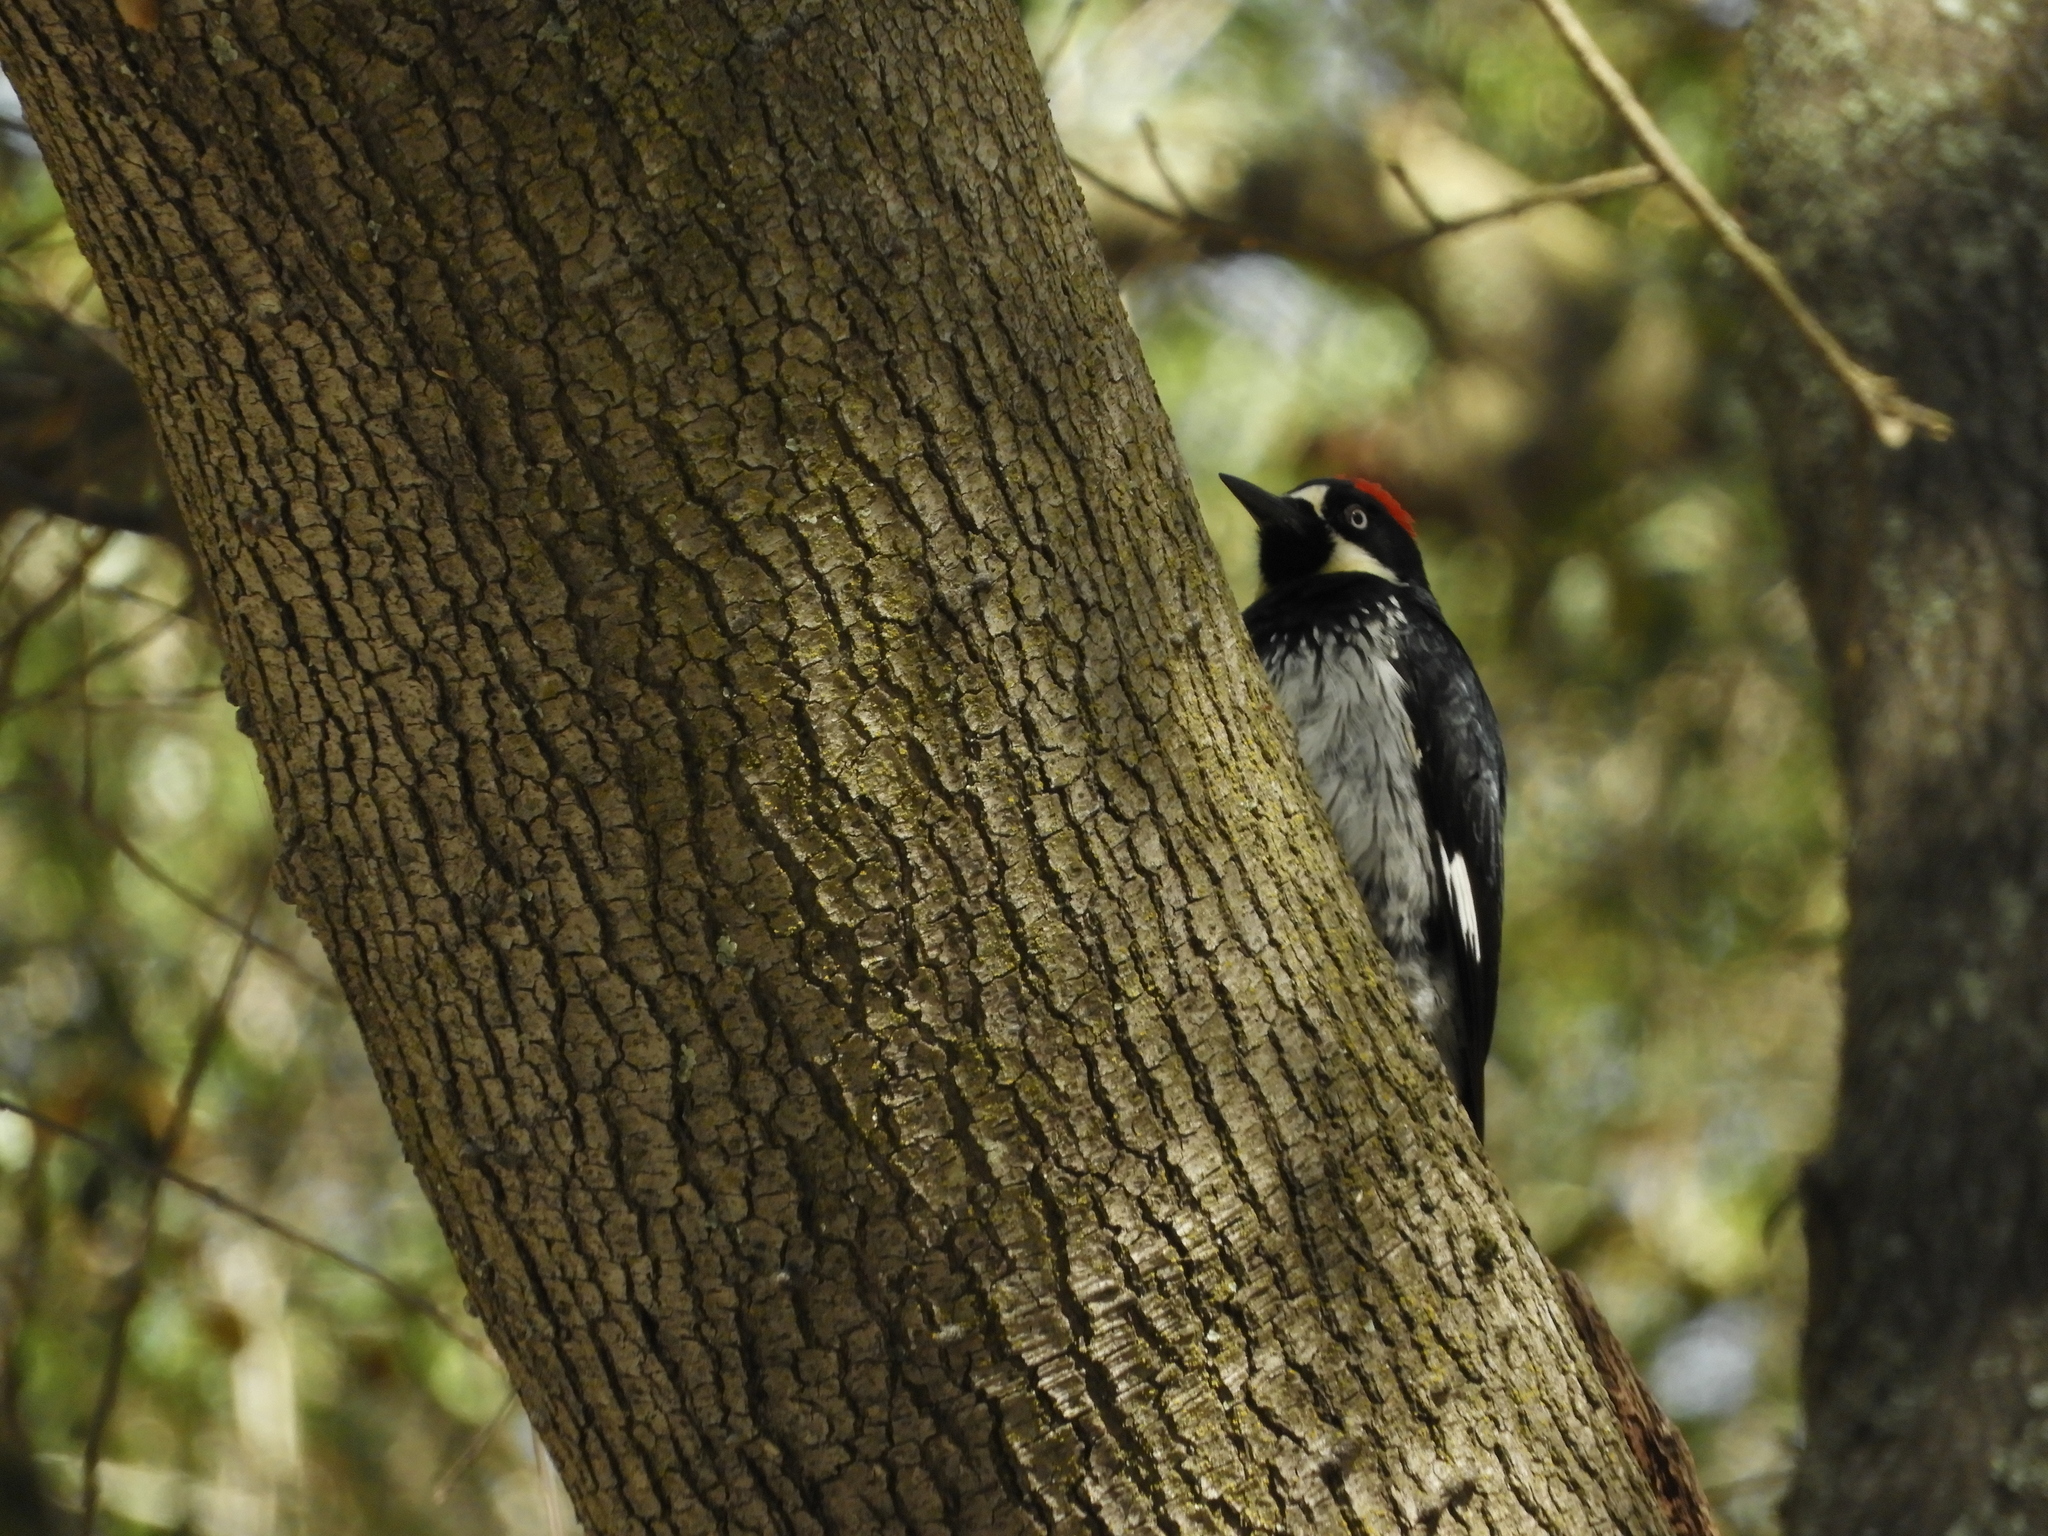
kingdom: Animalia
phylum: Chordata
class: Aves
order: Piciformes
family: Picidae
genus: Melanerpes
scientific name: Melanerpes formicivorus
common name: Acorn woodpecker
